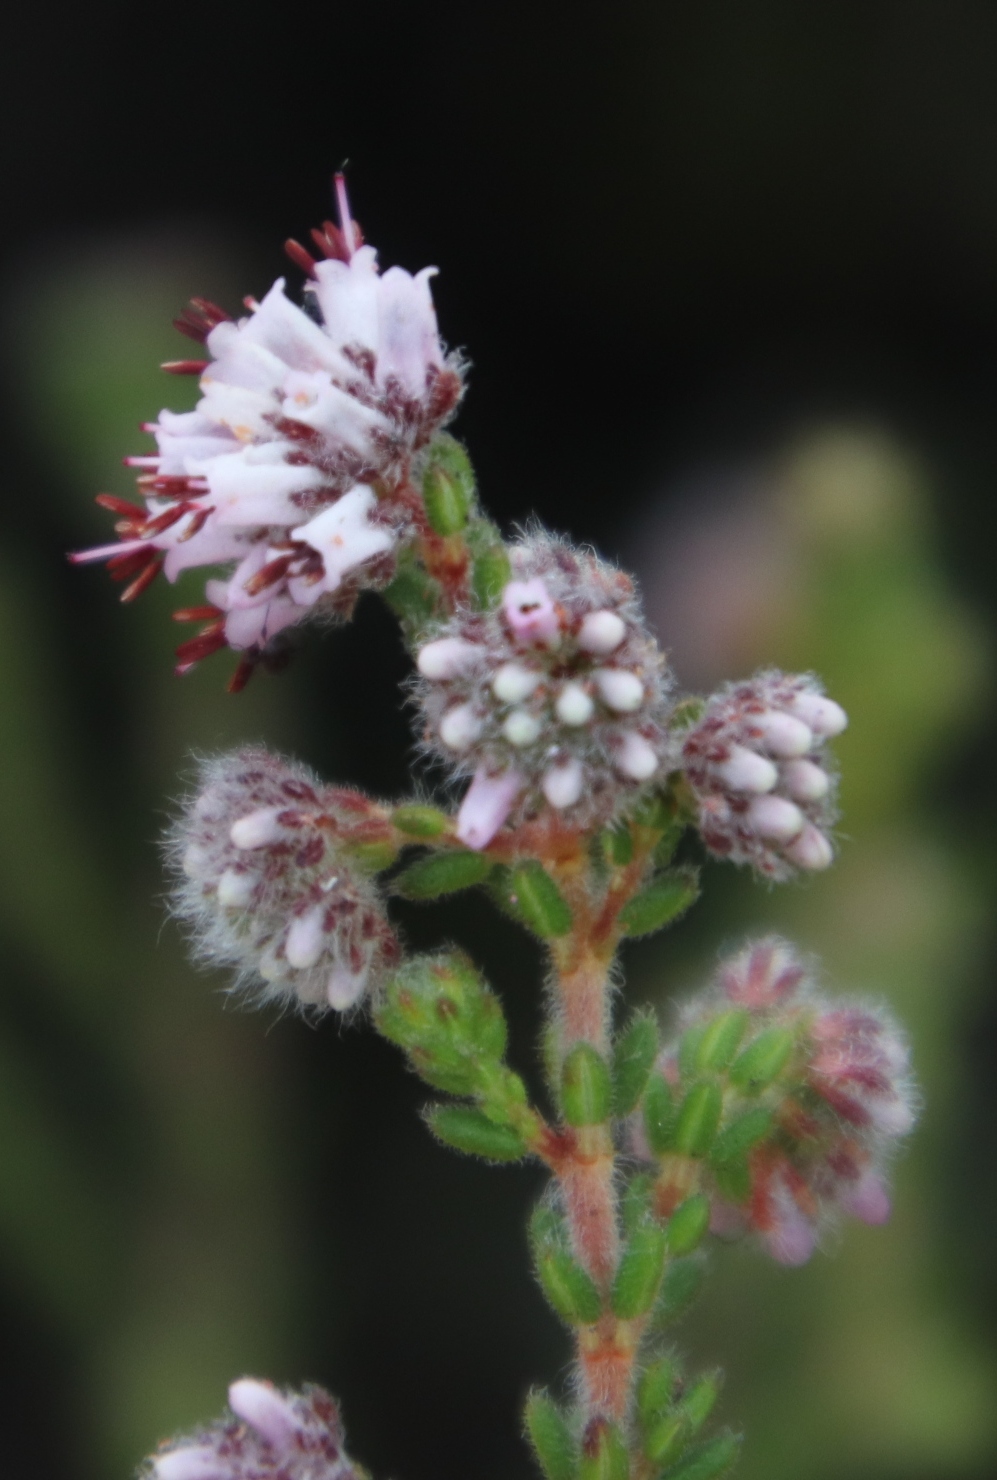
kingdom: Plantae
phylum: Tracheophyta
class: Magnoliopsida
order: Ericales
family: Ericaceae
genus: Erica
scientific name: Erica ericoides
